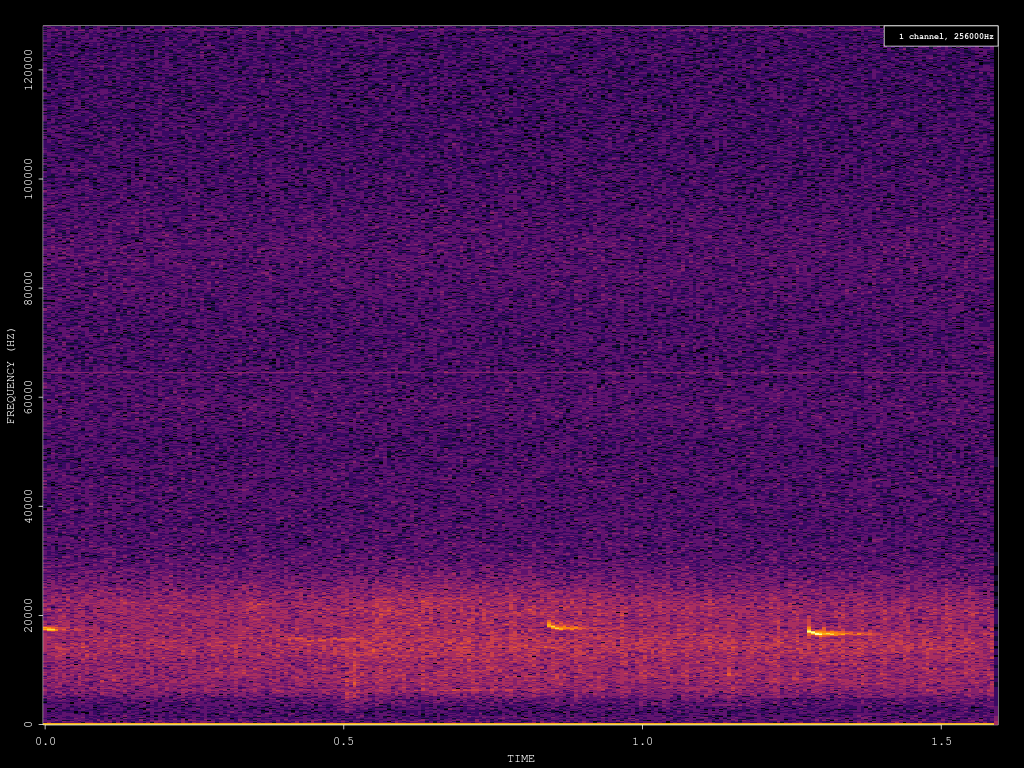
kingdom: Animalia
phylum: Chordata
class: Mammalia
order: Chiroptera
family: Vespertilionidae
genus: Nyctalus
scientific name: Nyctalus noctula
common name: Noctule
